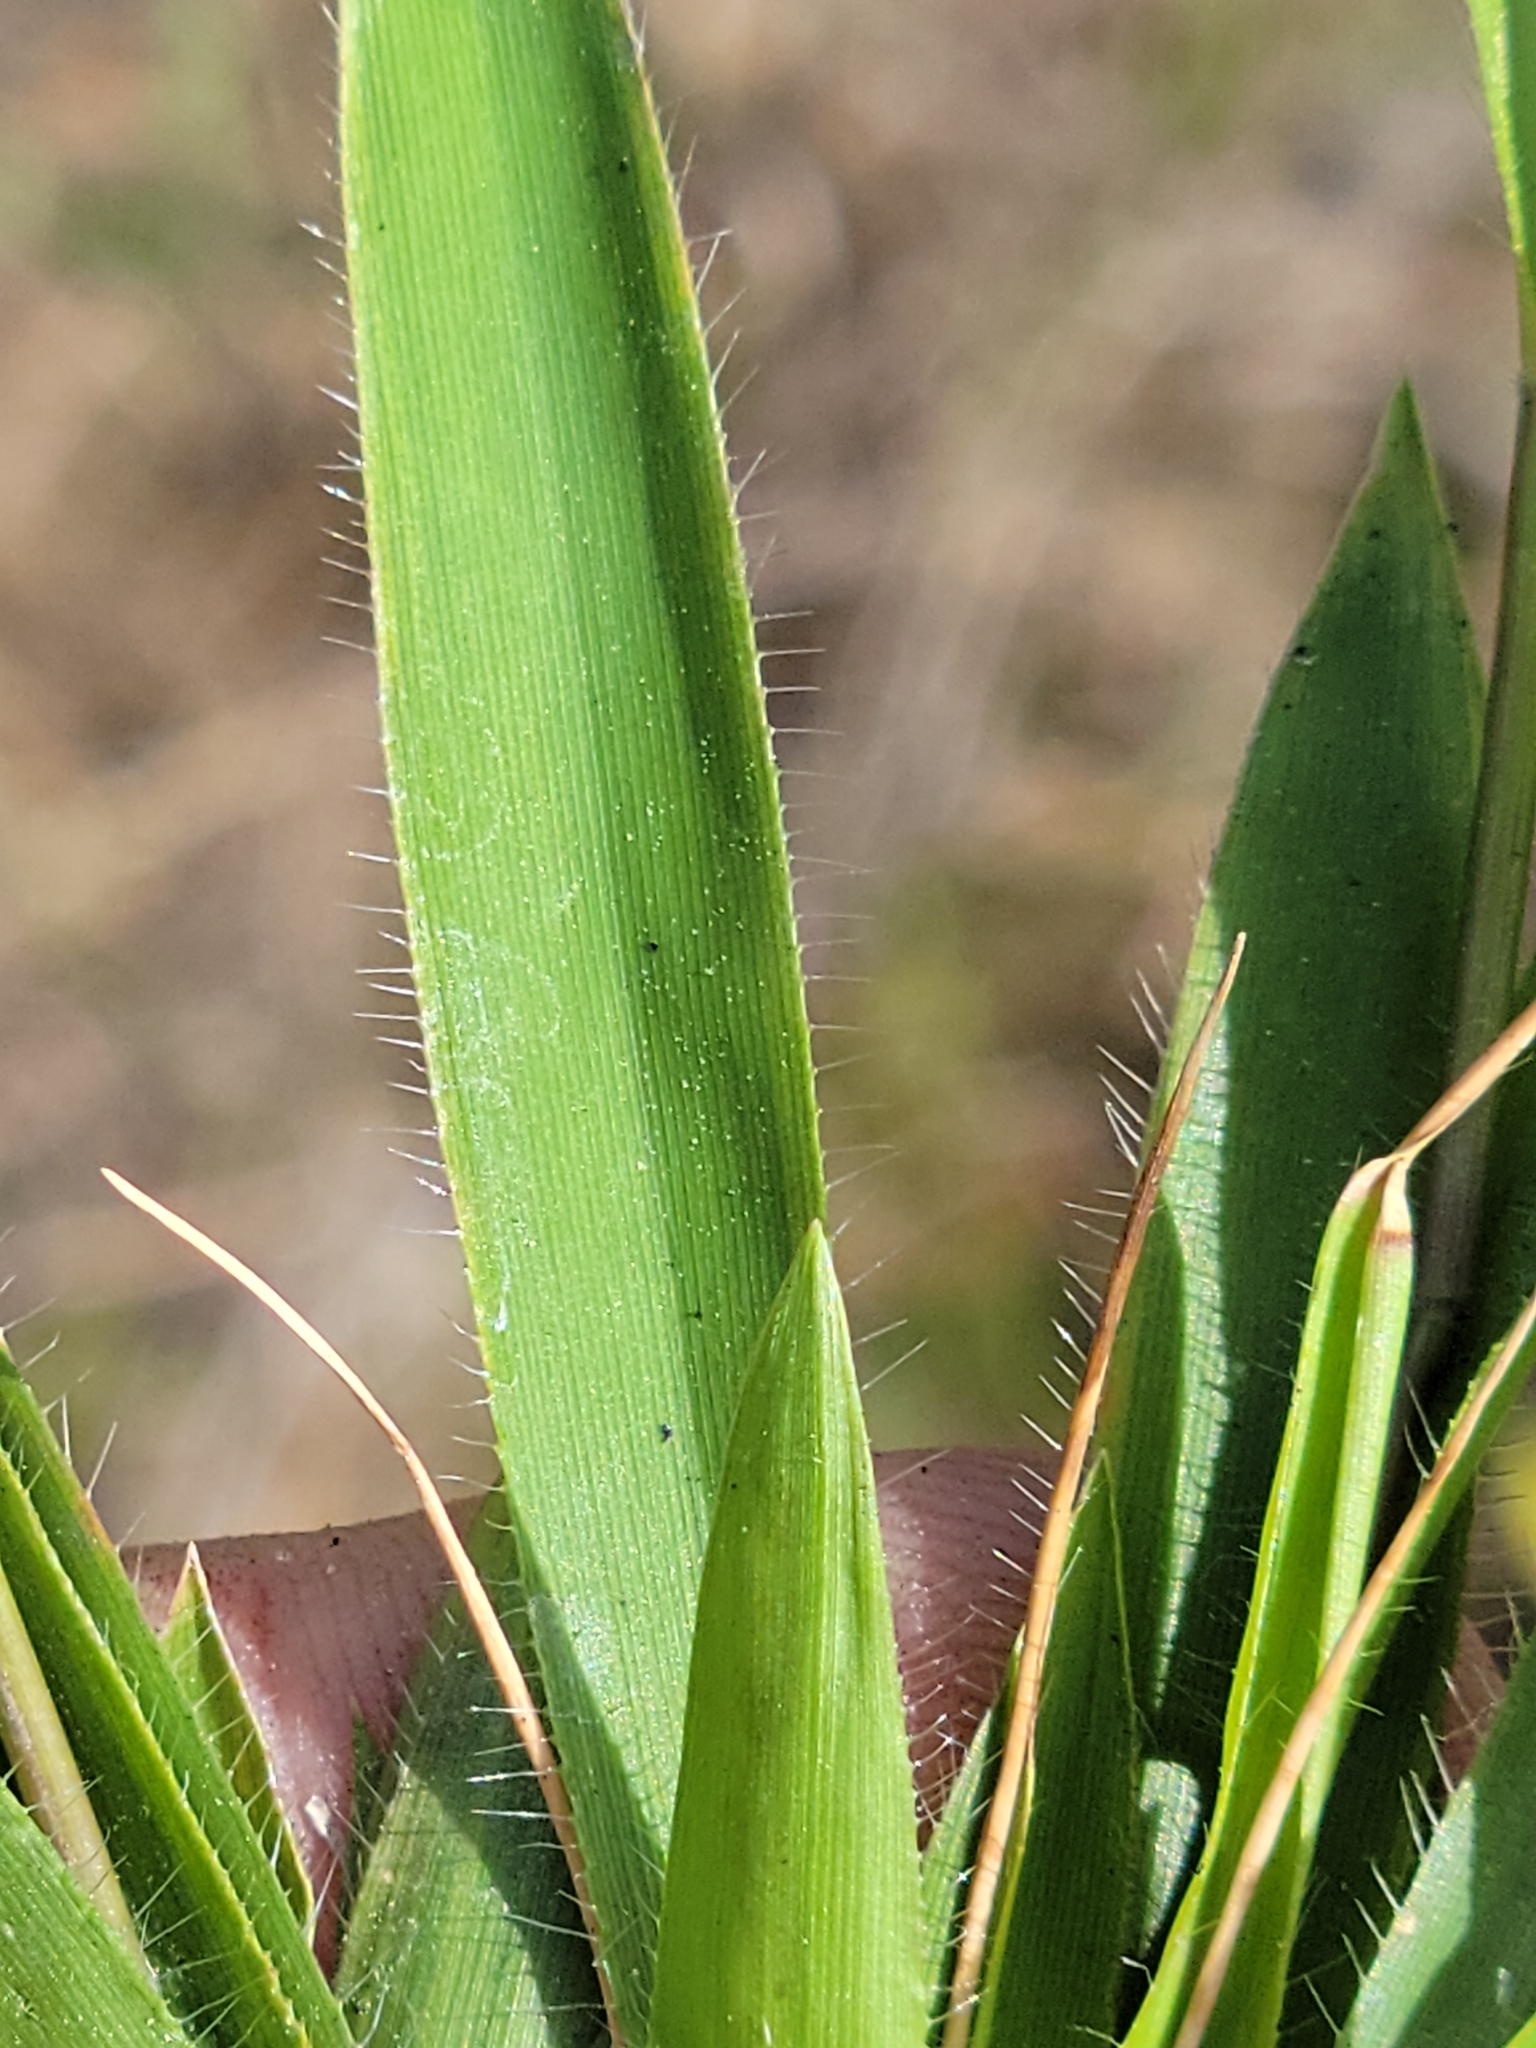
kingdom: Plantae
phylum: Tracheophyta
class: Liliopsida
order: Poales
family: Poaceae
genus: Dichanthelium
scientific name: Dichanthelium strigosum
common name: Cushion-tuft panic grass
